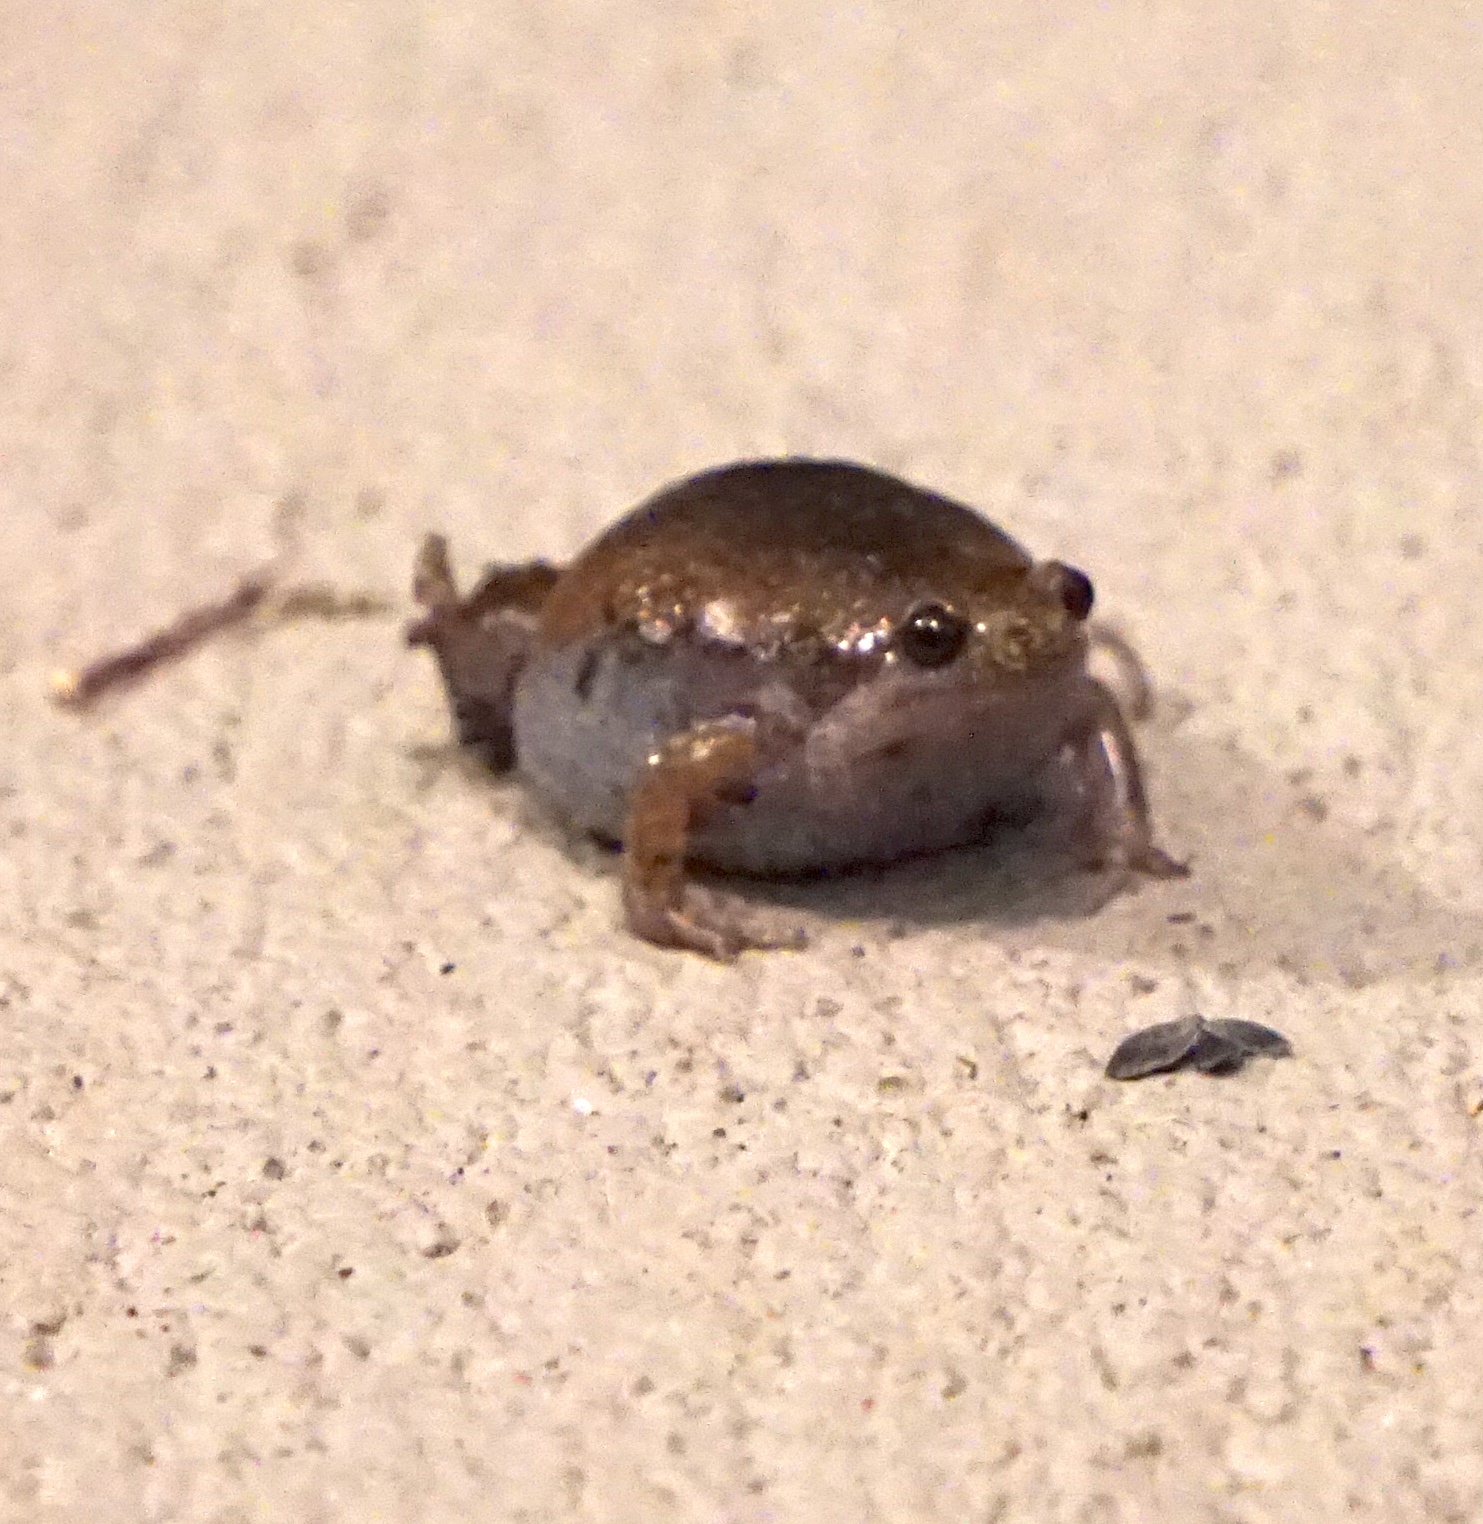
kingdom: Animalia
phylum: Chordata
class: Amphibia
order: Anura
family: Microhylidae
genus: Gastrophryne
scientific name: Gastrophryne carolinensis
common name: Eastern narrowmouth toad
